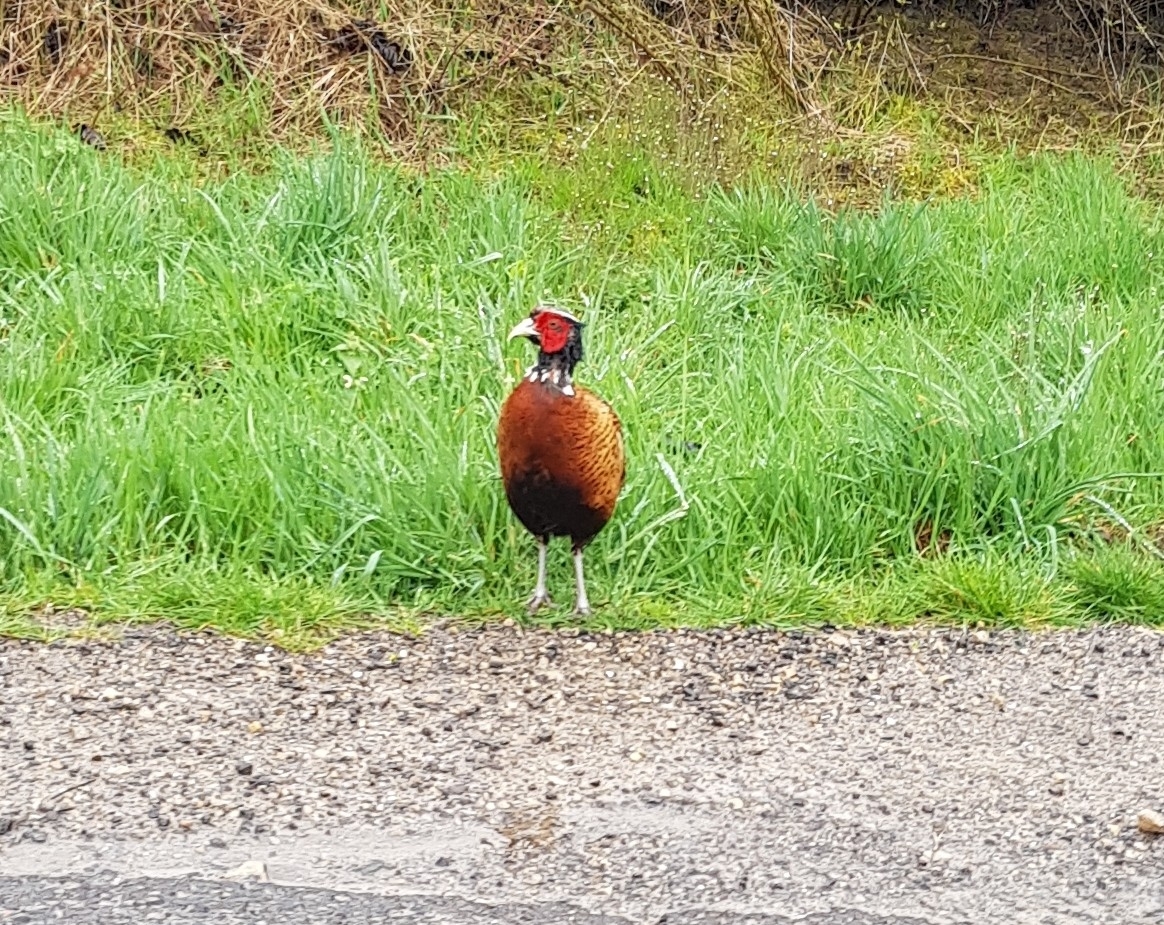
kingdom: Animalia
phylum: Chordata
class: Aves
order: Galliformes
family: Phasianidae
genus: Phasianus
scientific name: Phasianus colchicus
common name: Common pheasant
